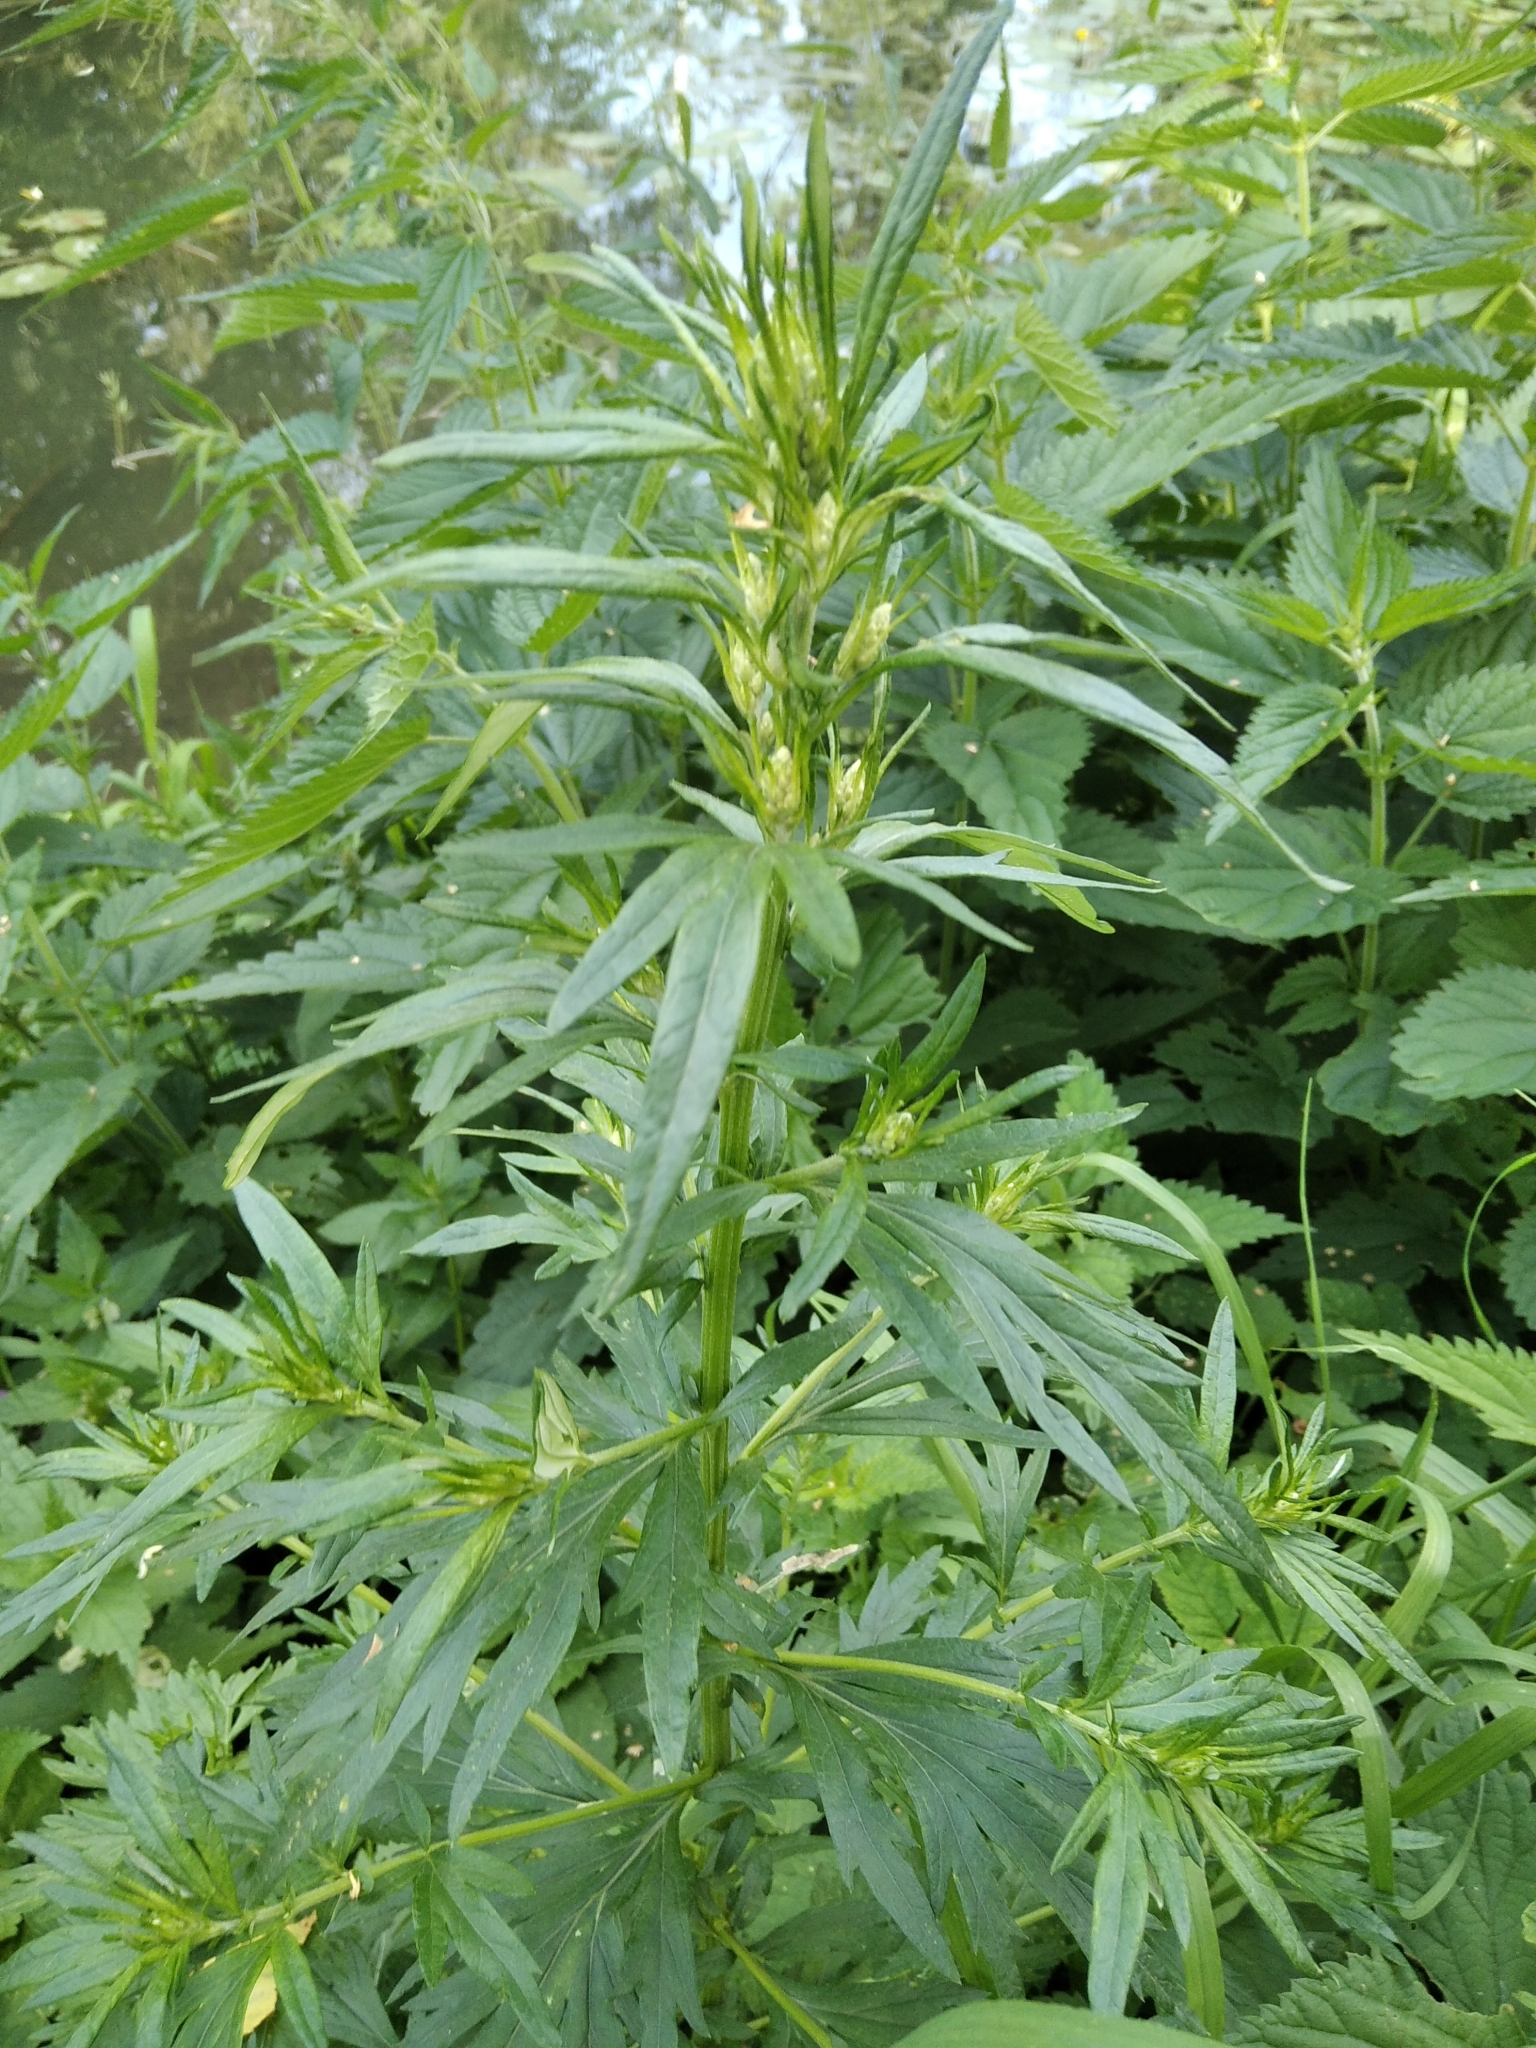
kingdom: Plantae
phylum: Tracheophyta
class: Magnoliopsida
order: Asterales
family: Asteraceae
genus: Artemisia
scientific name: Artemisia vulgaris
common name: Mugwort
